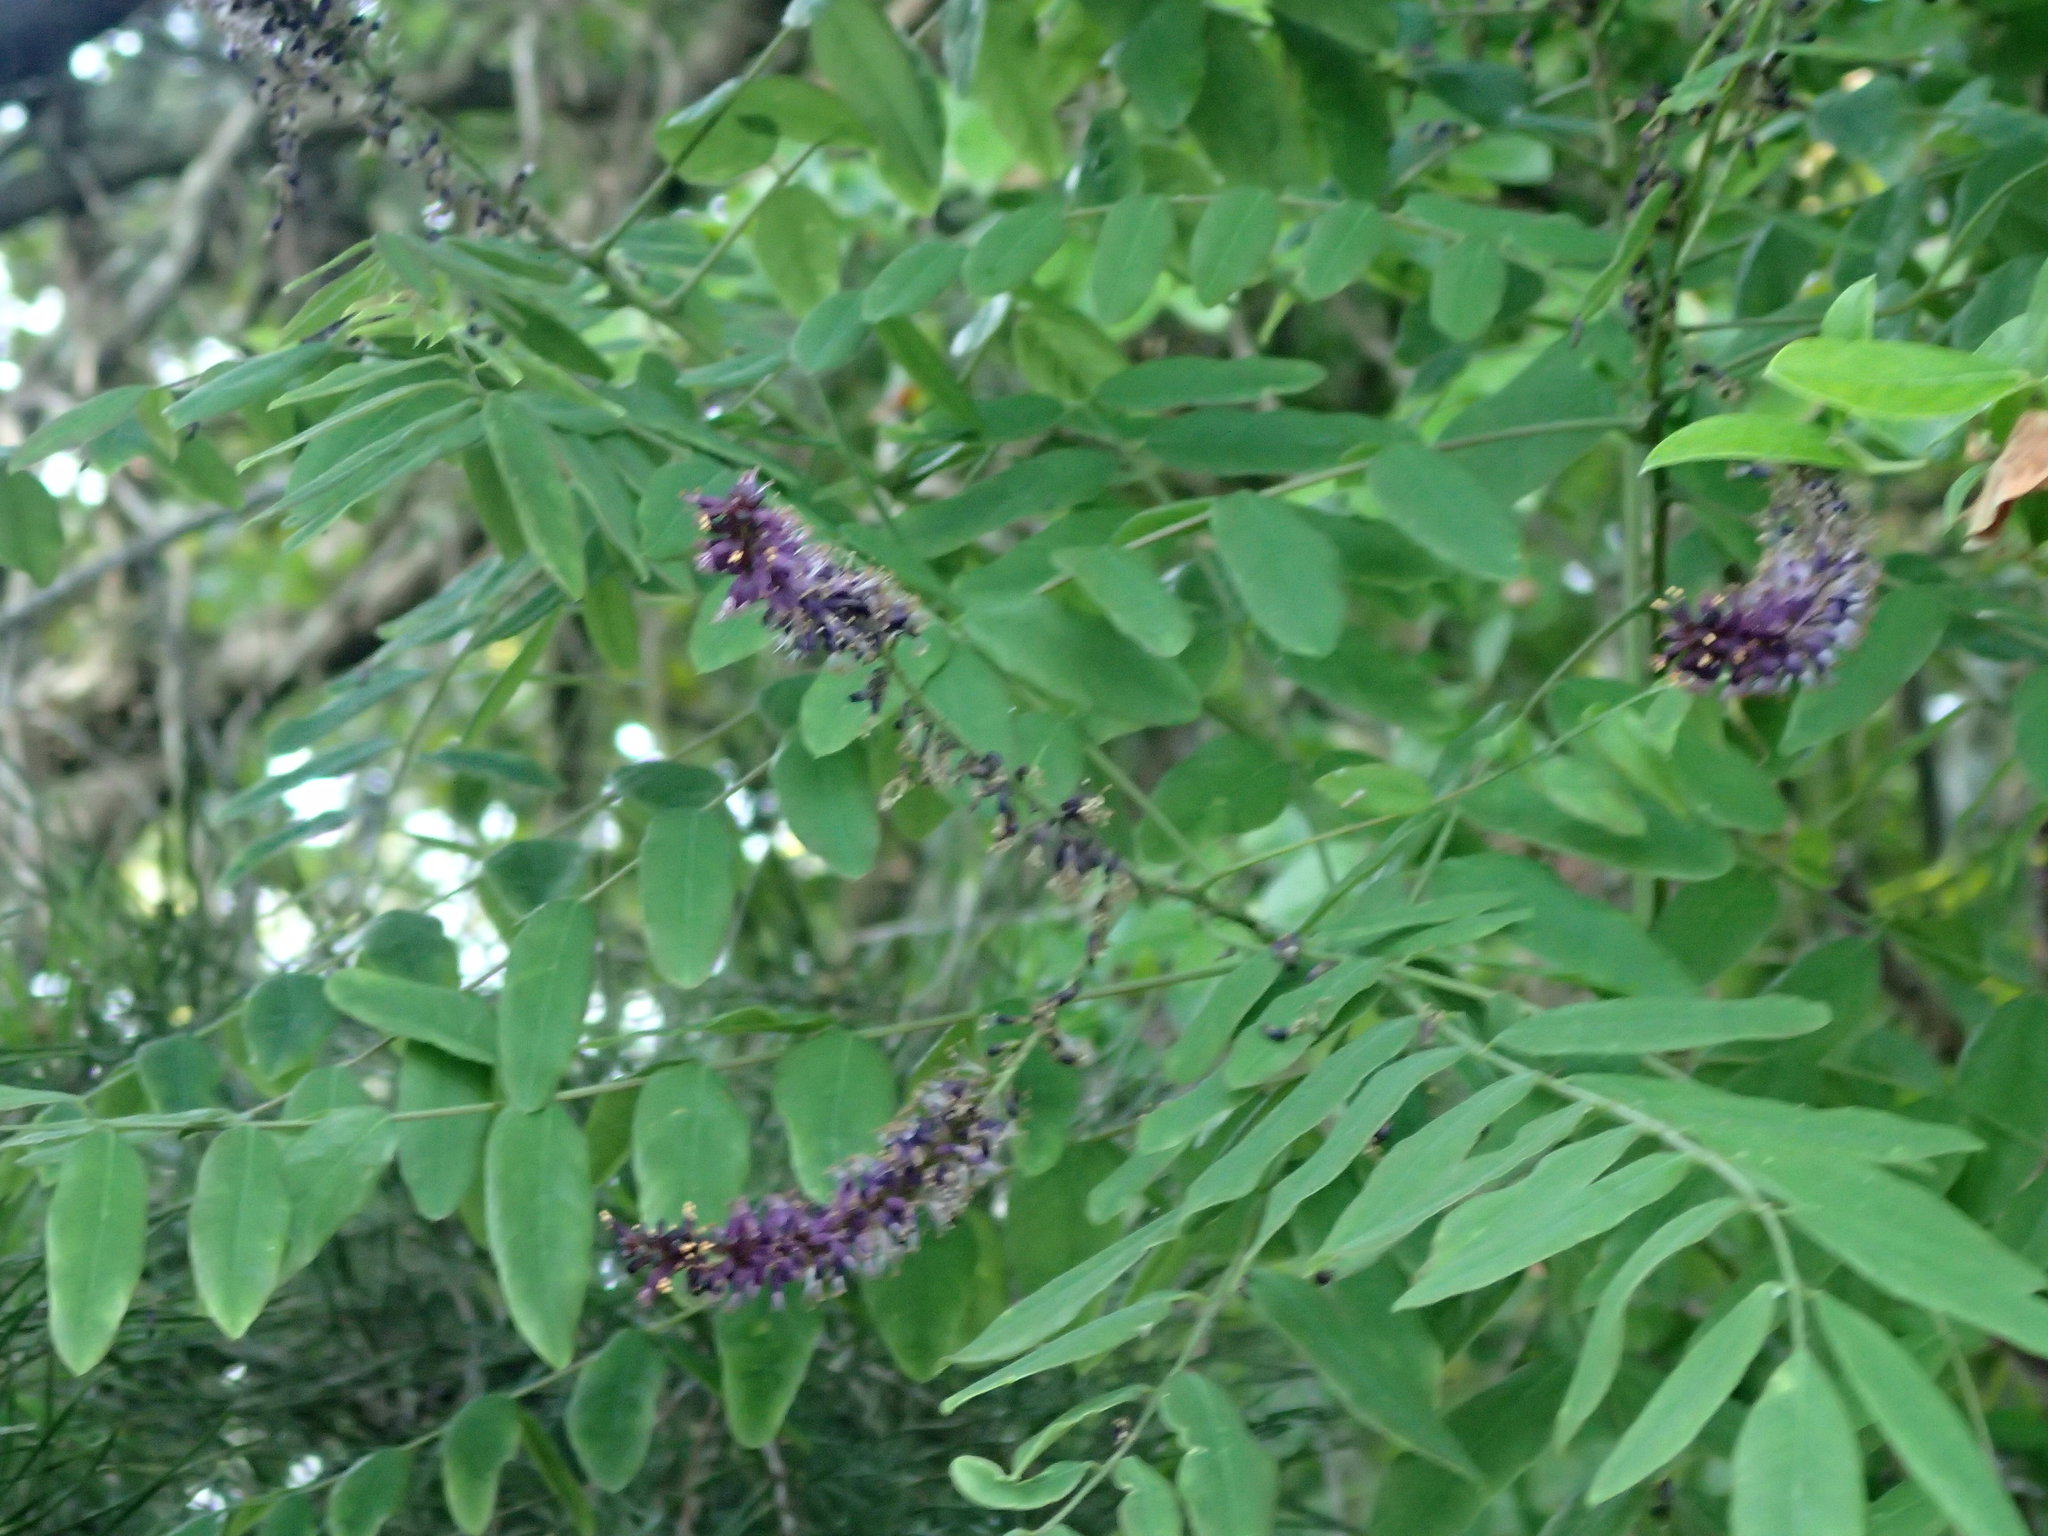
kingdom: Plantae
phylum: Tracheophyta
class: Magnoliopsida
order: Fabales
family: Fabaceae
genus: Amorpha
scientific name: Amorpha fruticosa
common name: False indigo
